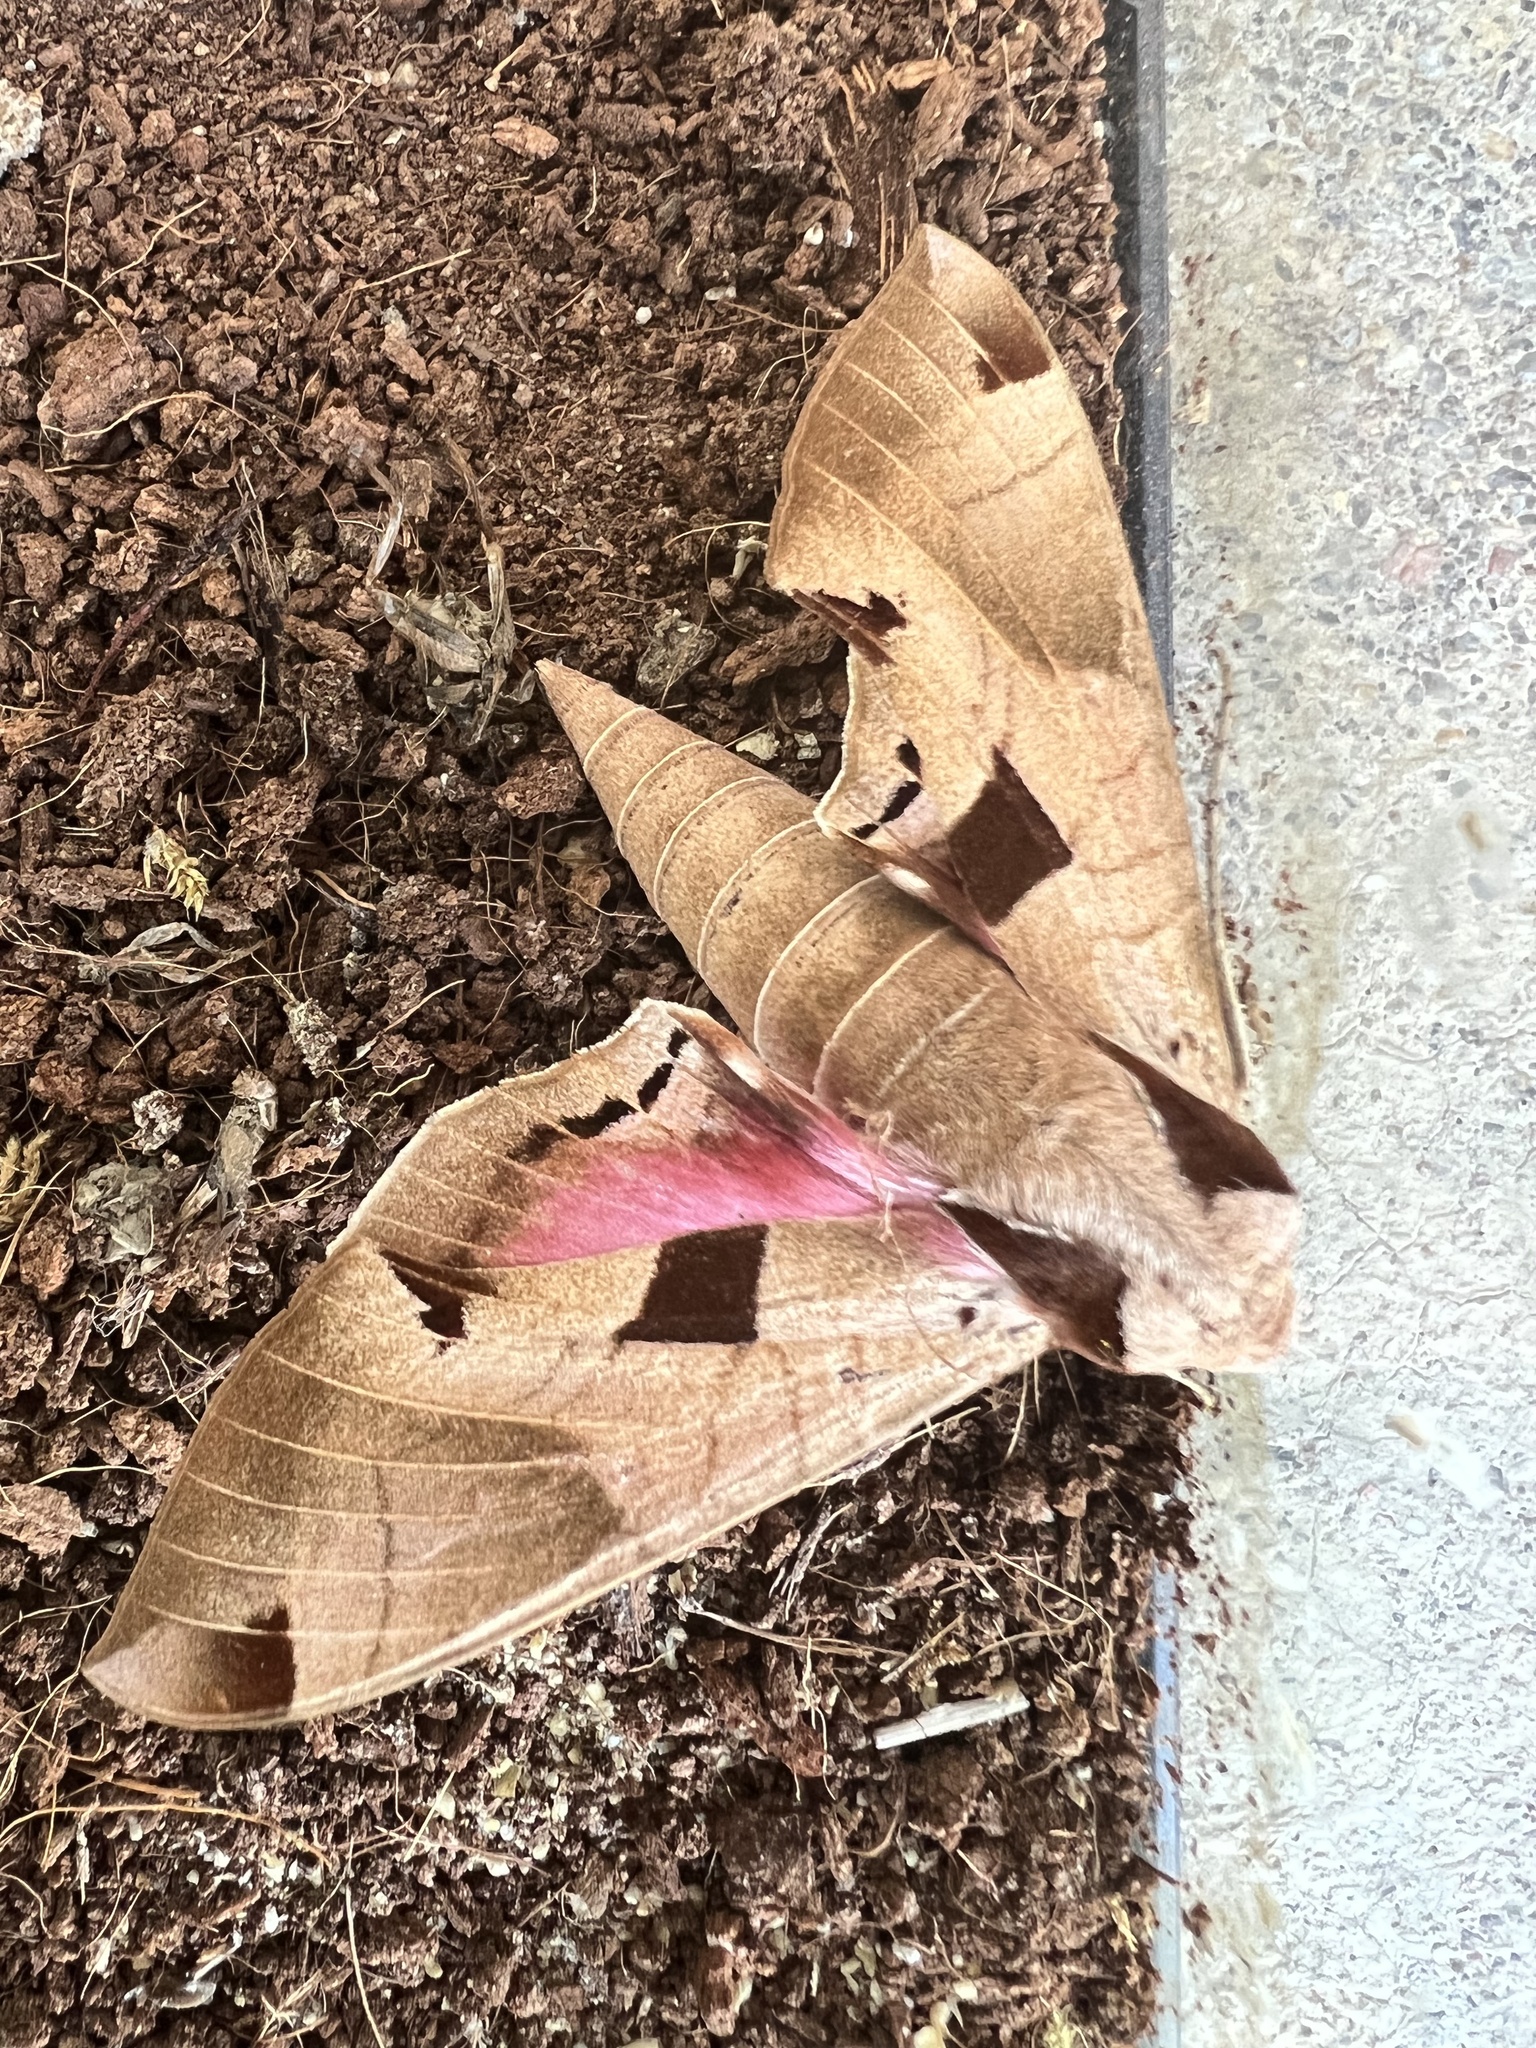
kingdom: Animalia
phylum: Arthropoda
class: Insecta
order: Lepidoptera
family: Sphingidae
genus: Eumorpha
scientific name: Eumorpha achemon
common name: Achemon sphinx
